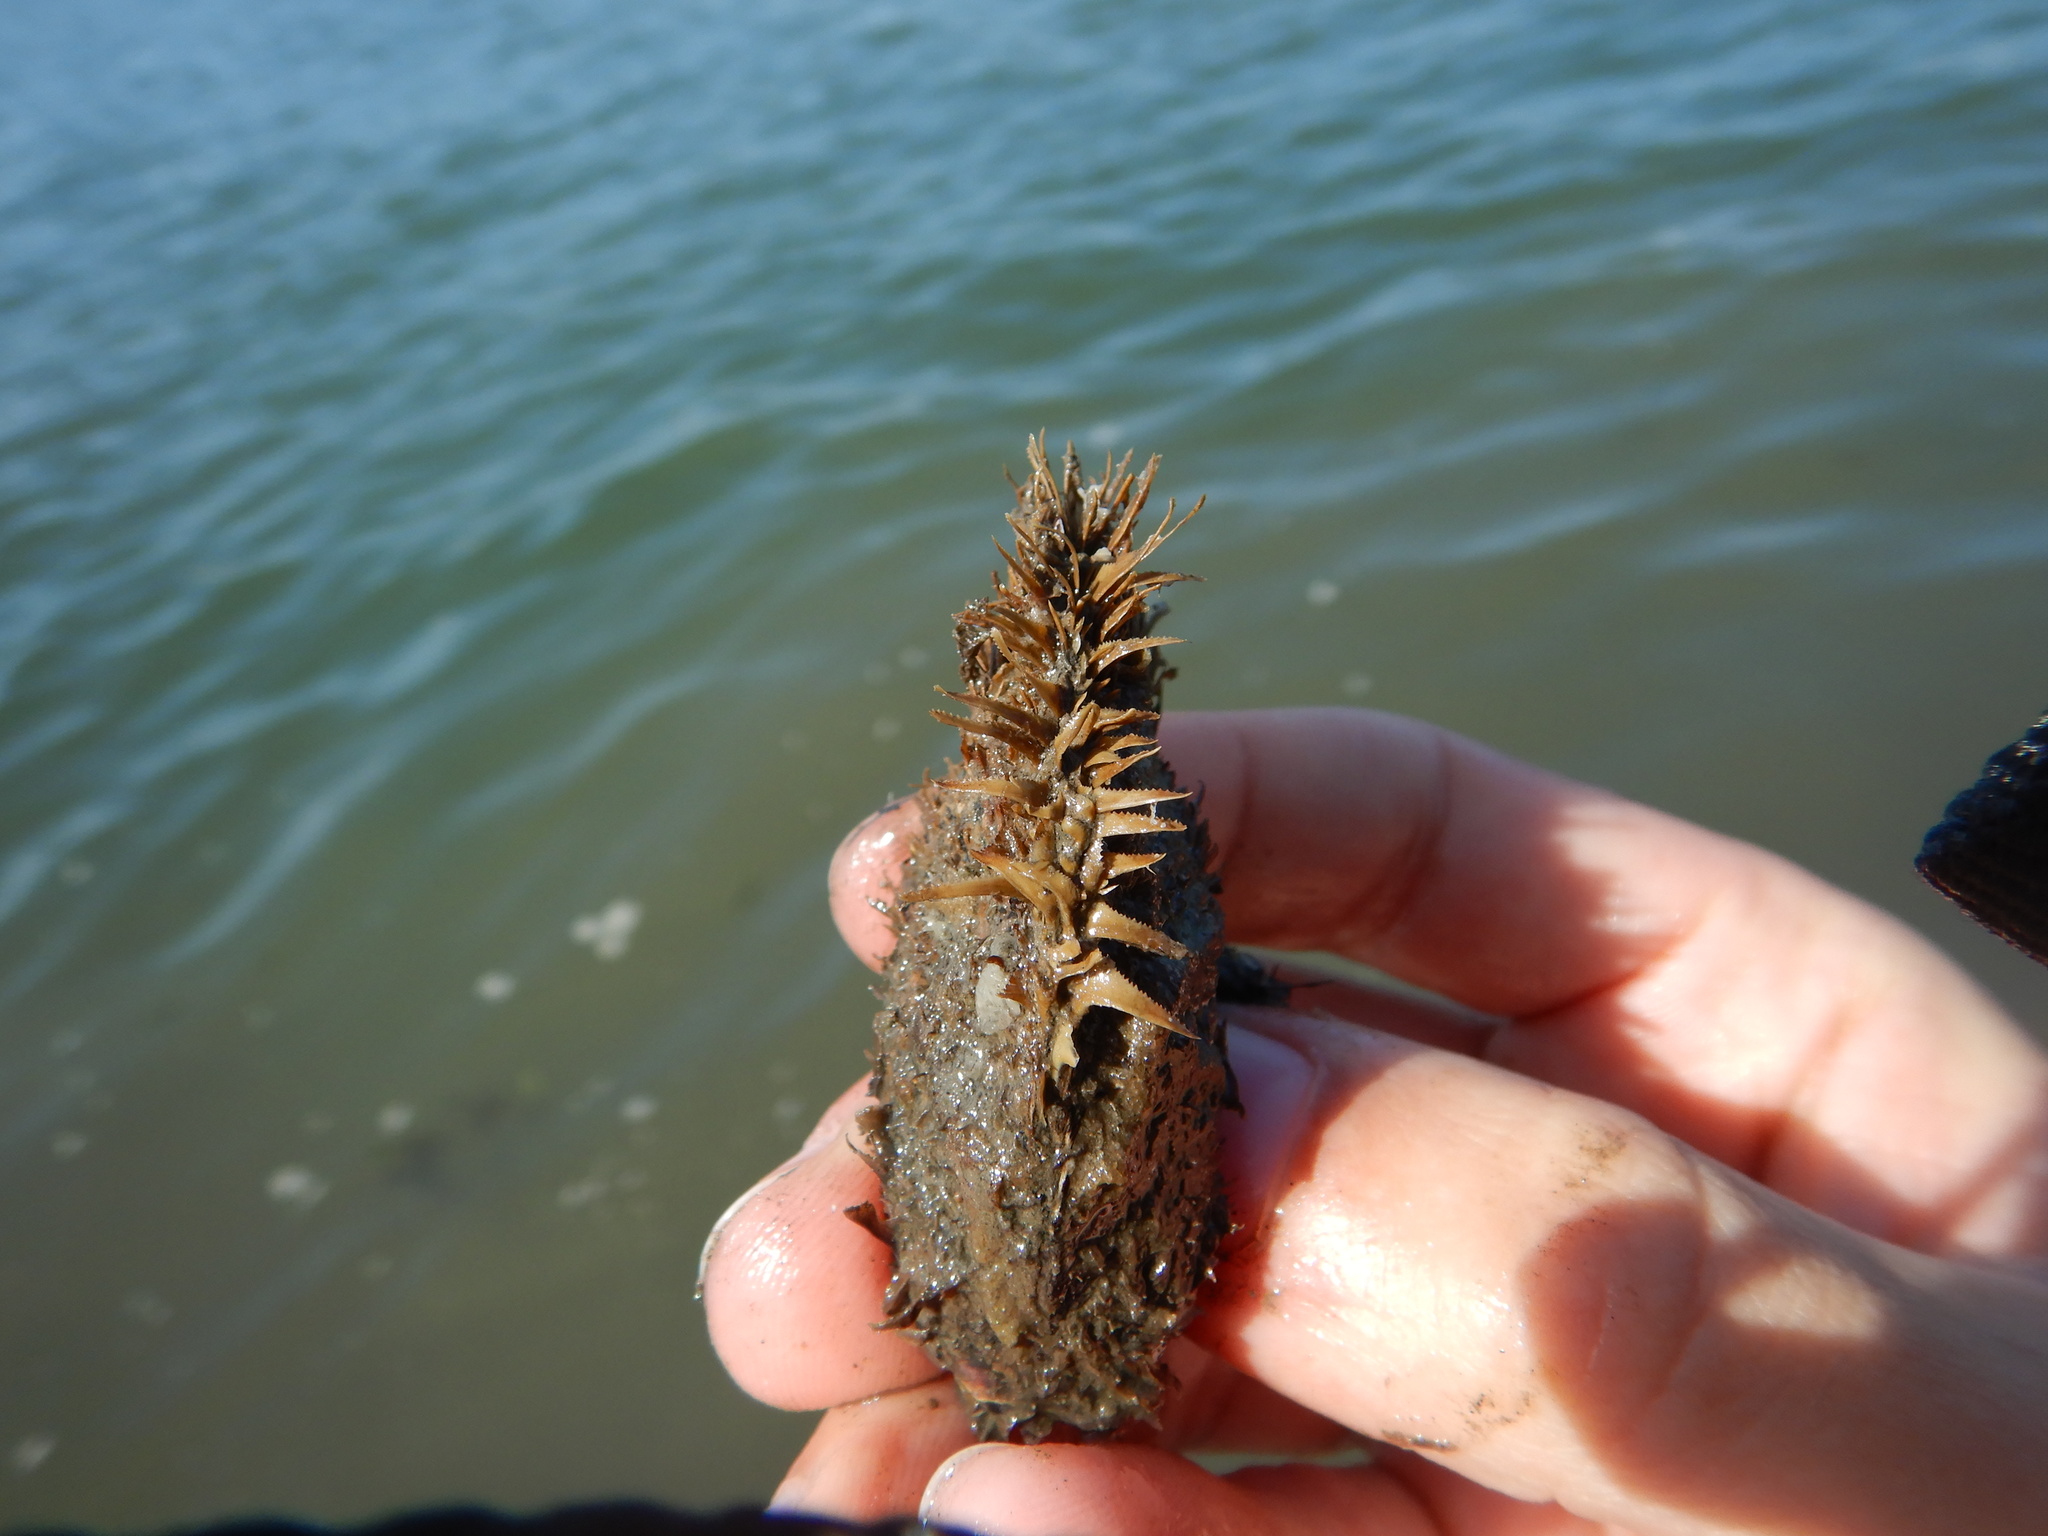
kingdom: Animalia
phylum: Mollusca
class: Bivalvia
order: Mytilida
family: Mytilidae
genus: Modiolus
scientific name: Modiolus barbatus
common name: Bearded mussel
